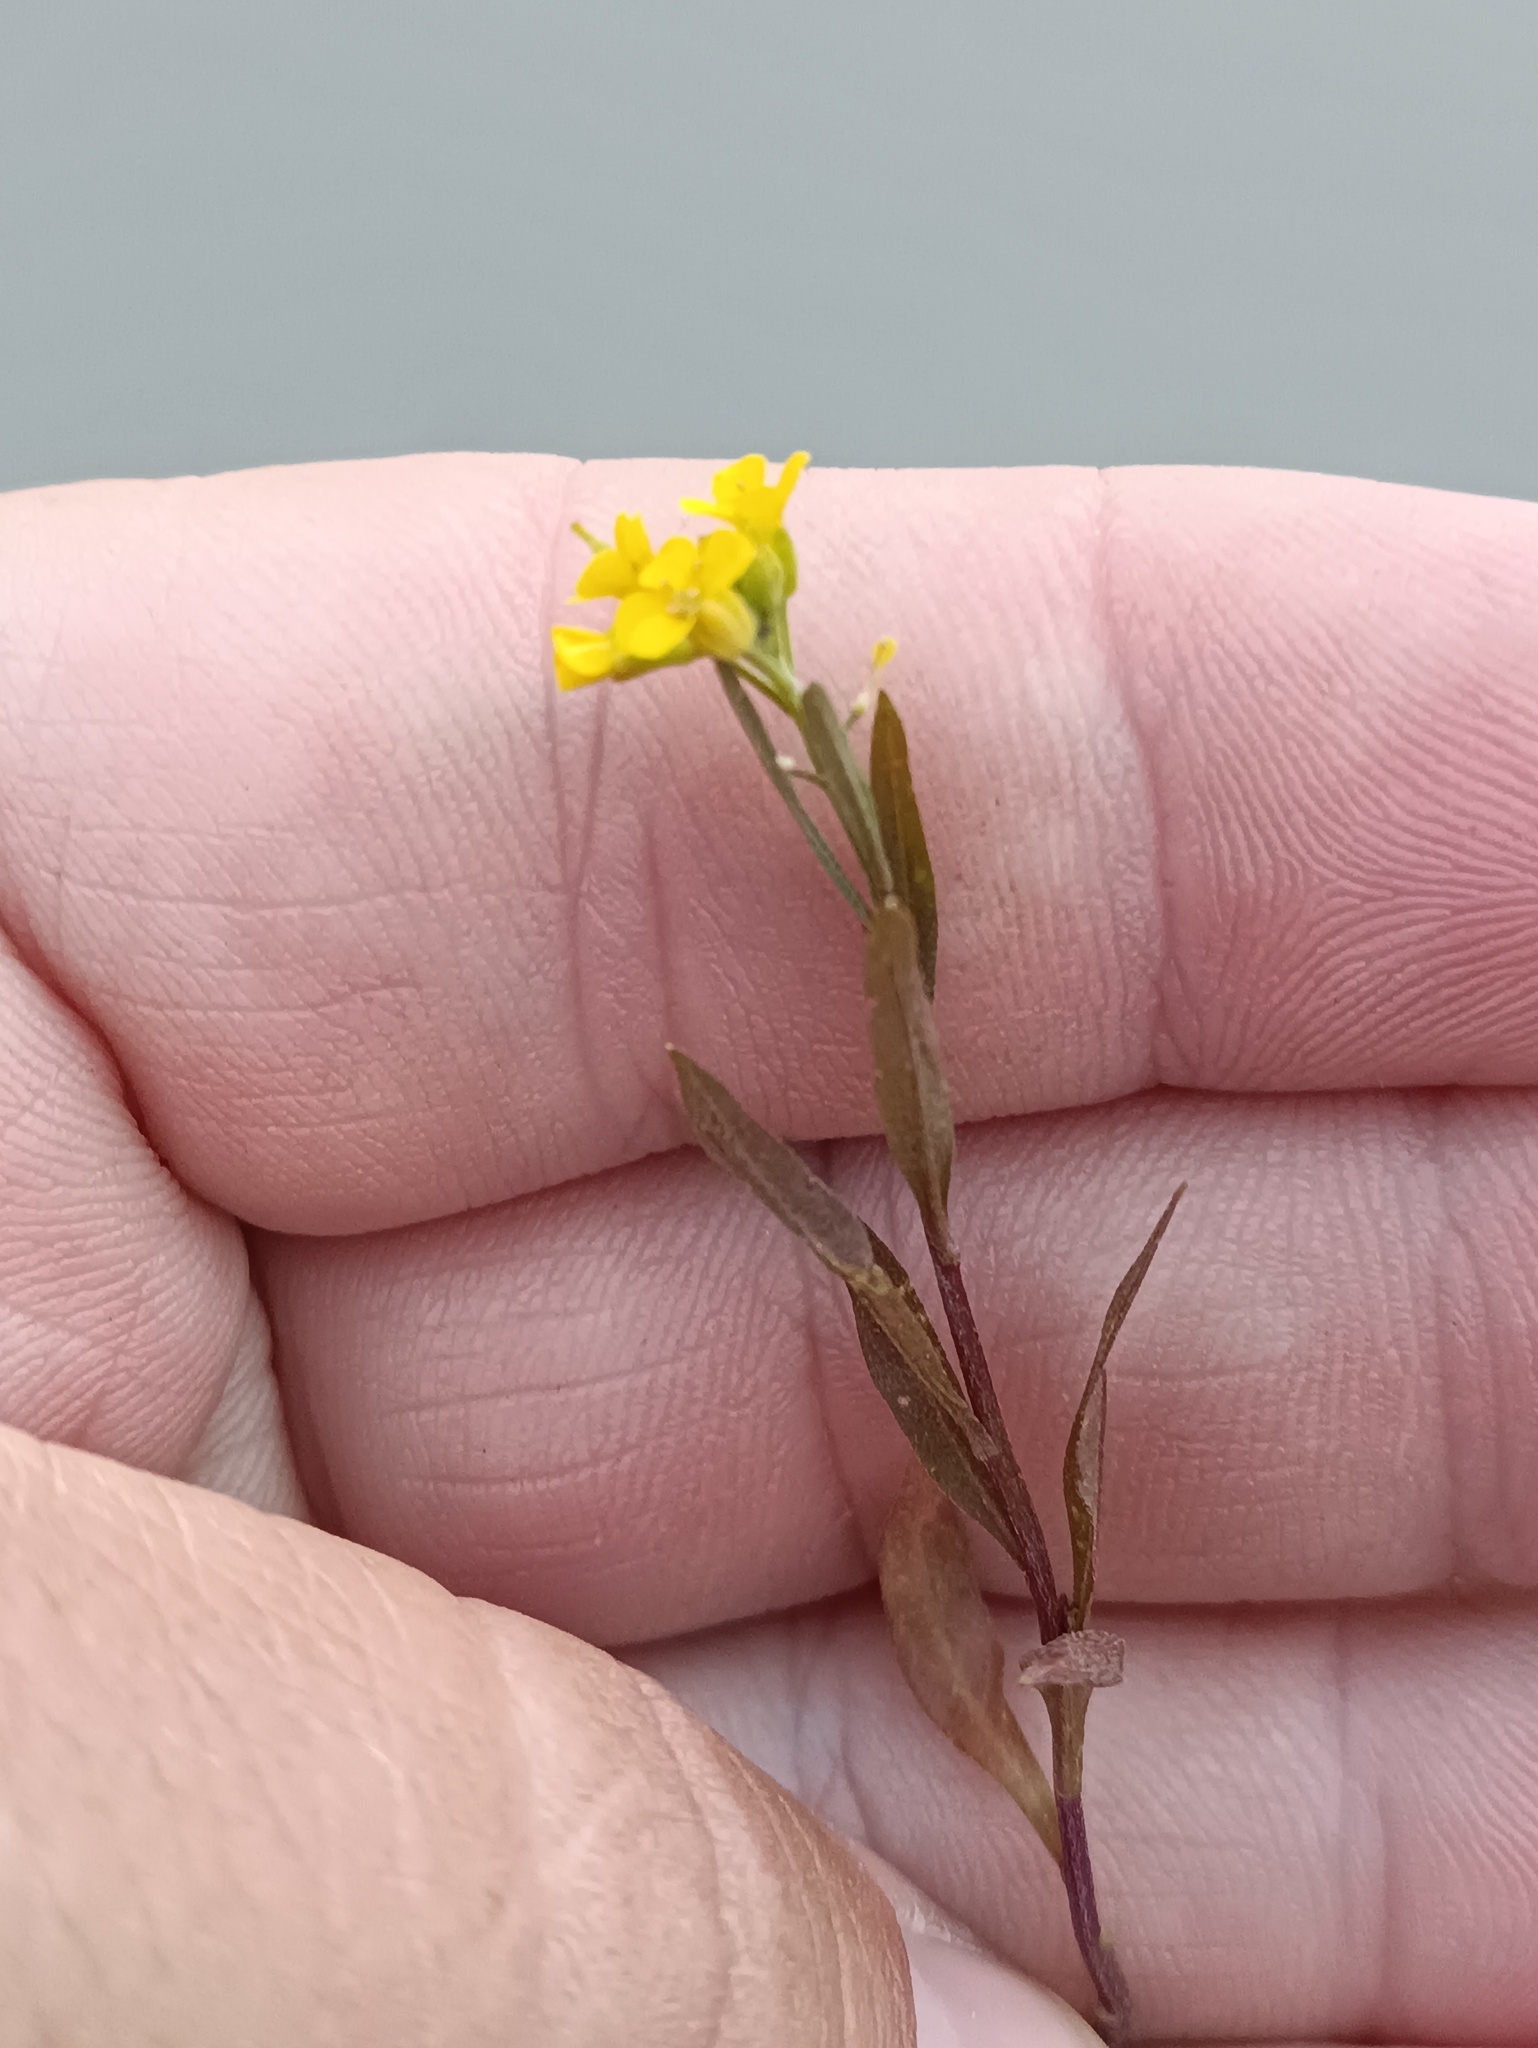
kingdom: Plantae
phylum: Tracheophyta
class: Magnoliopsida
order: Brassicales
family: Brassicaceae
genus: Erysimum
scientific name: Erysimum cheiranthoides
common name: Treacle mustard
